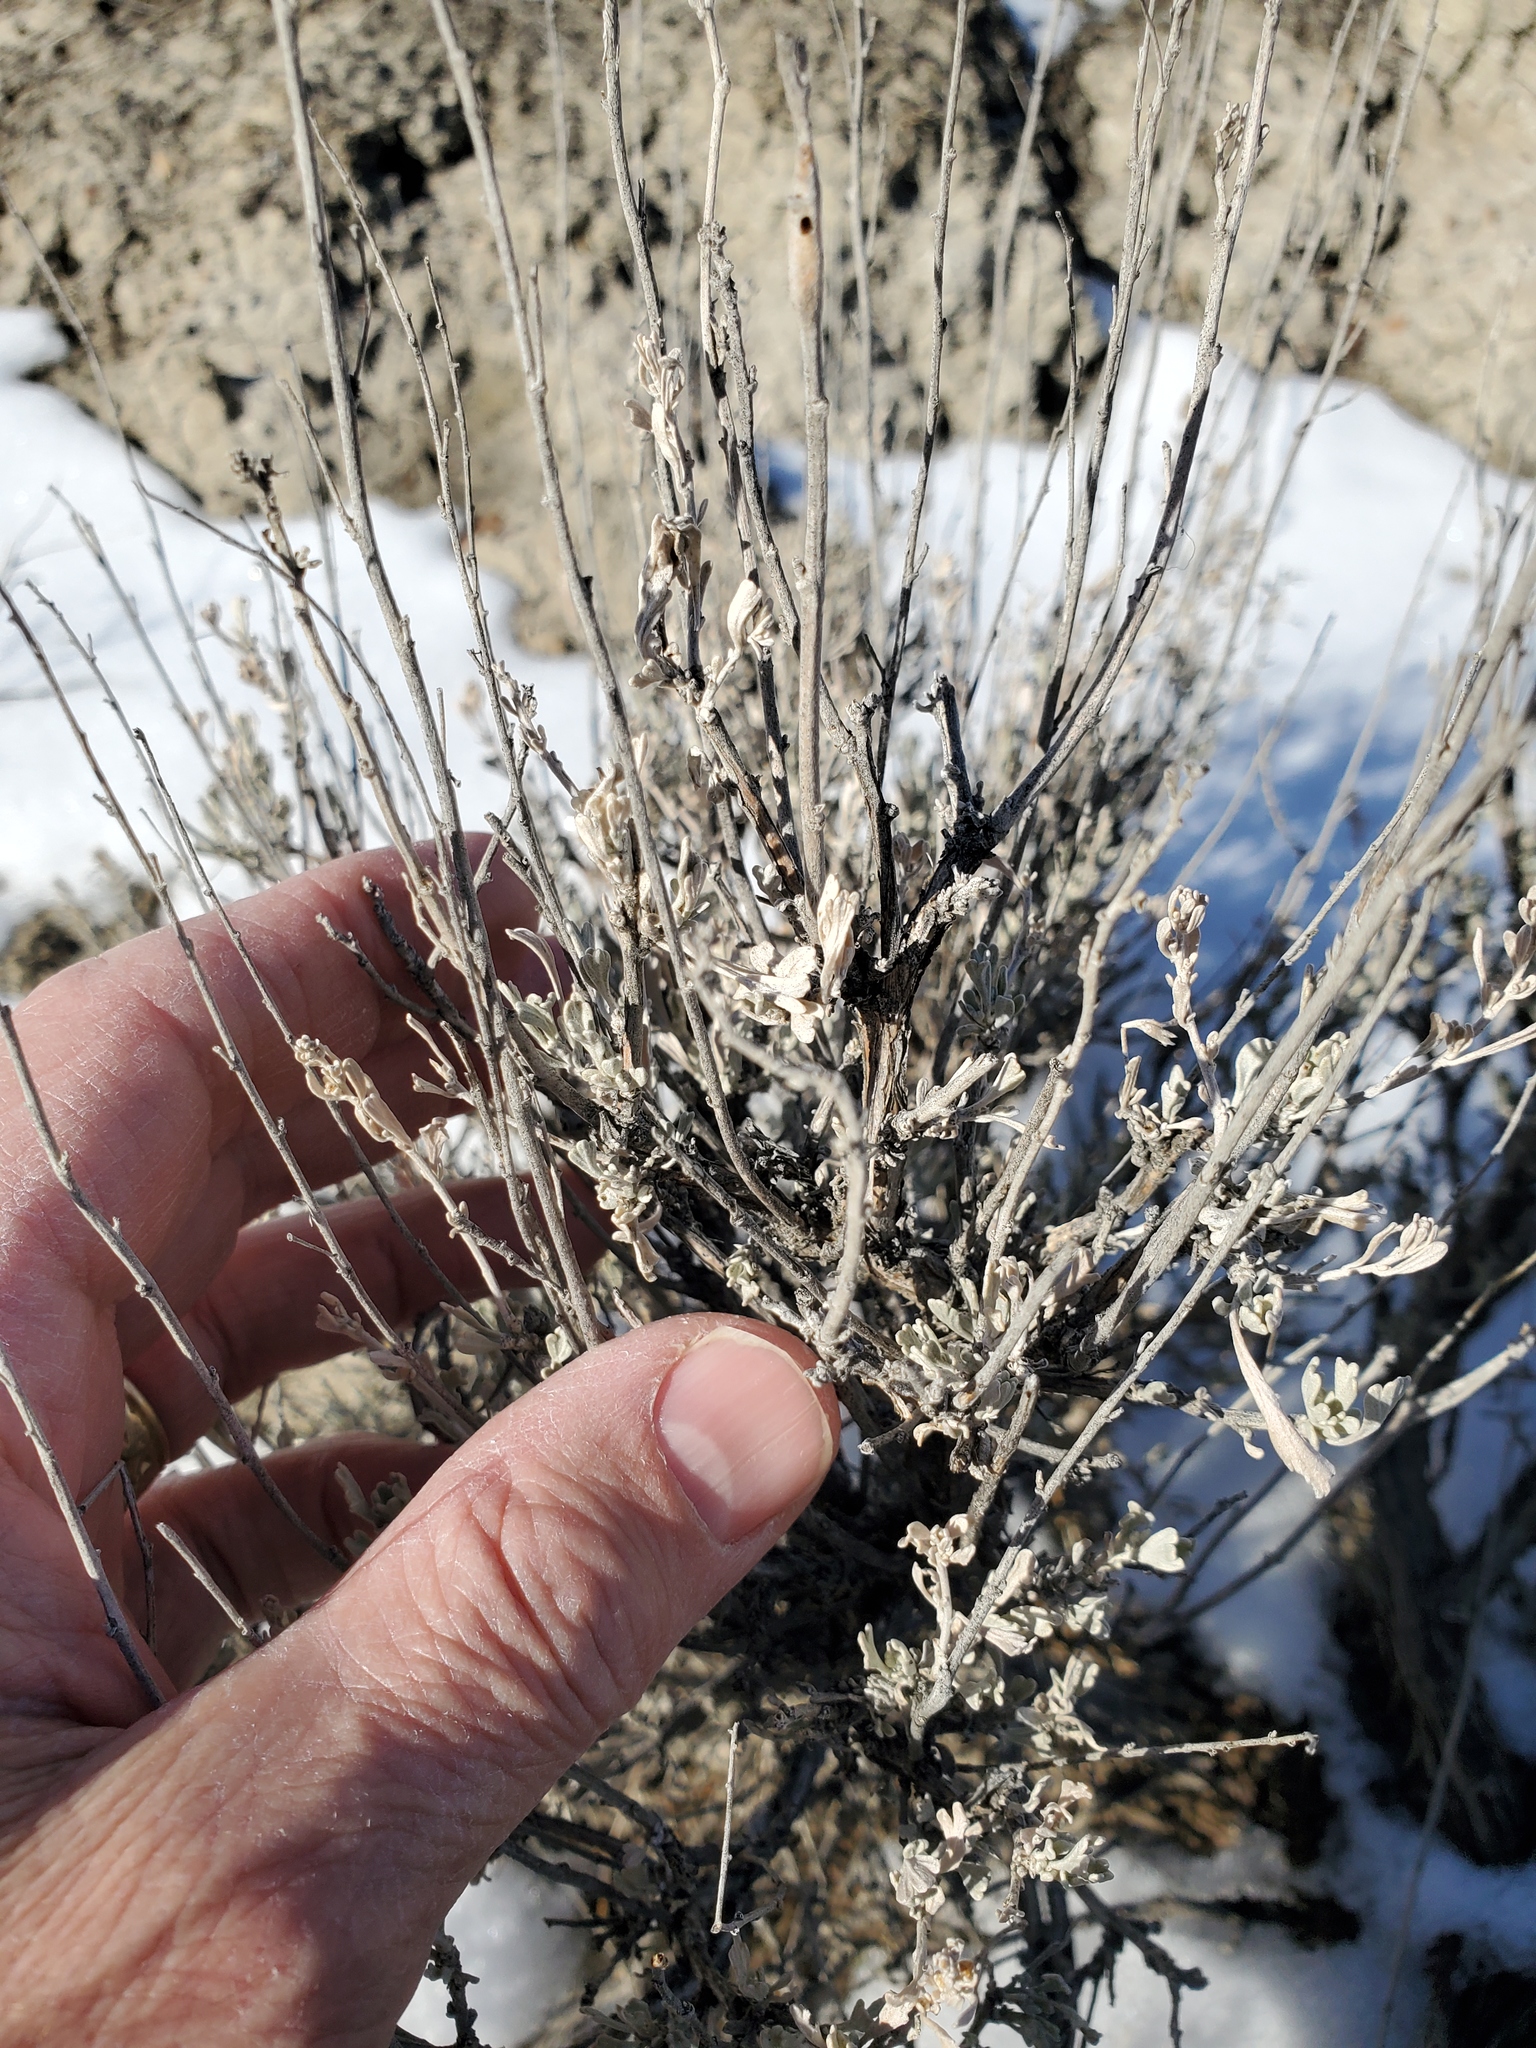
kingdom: Plantae
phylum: Tracheophyta
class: Magnoliopsida
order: Asterales
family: Asteraceae
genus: Artemisia
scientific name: Artemisia tridentata
